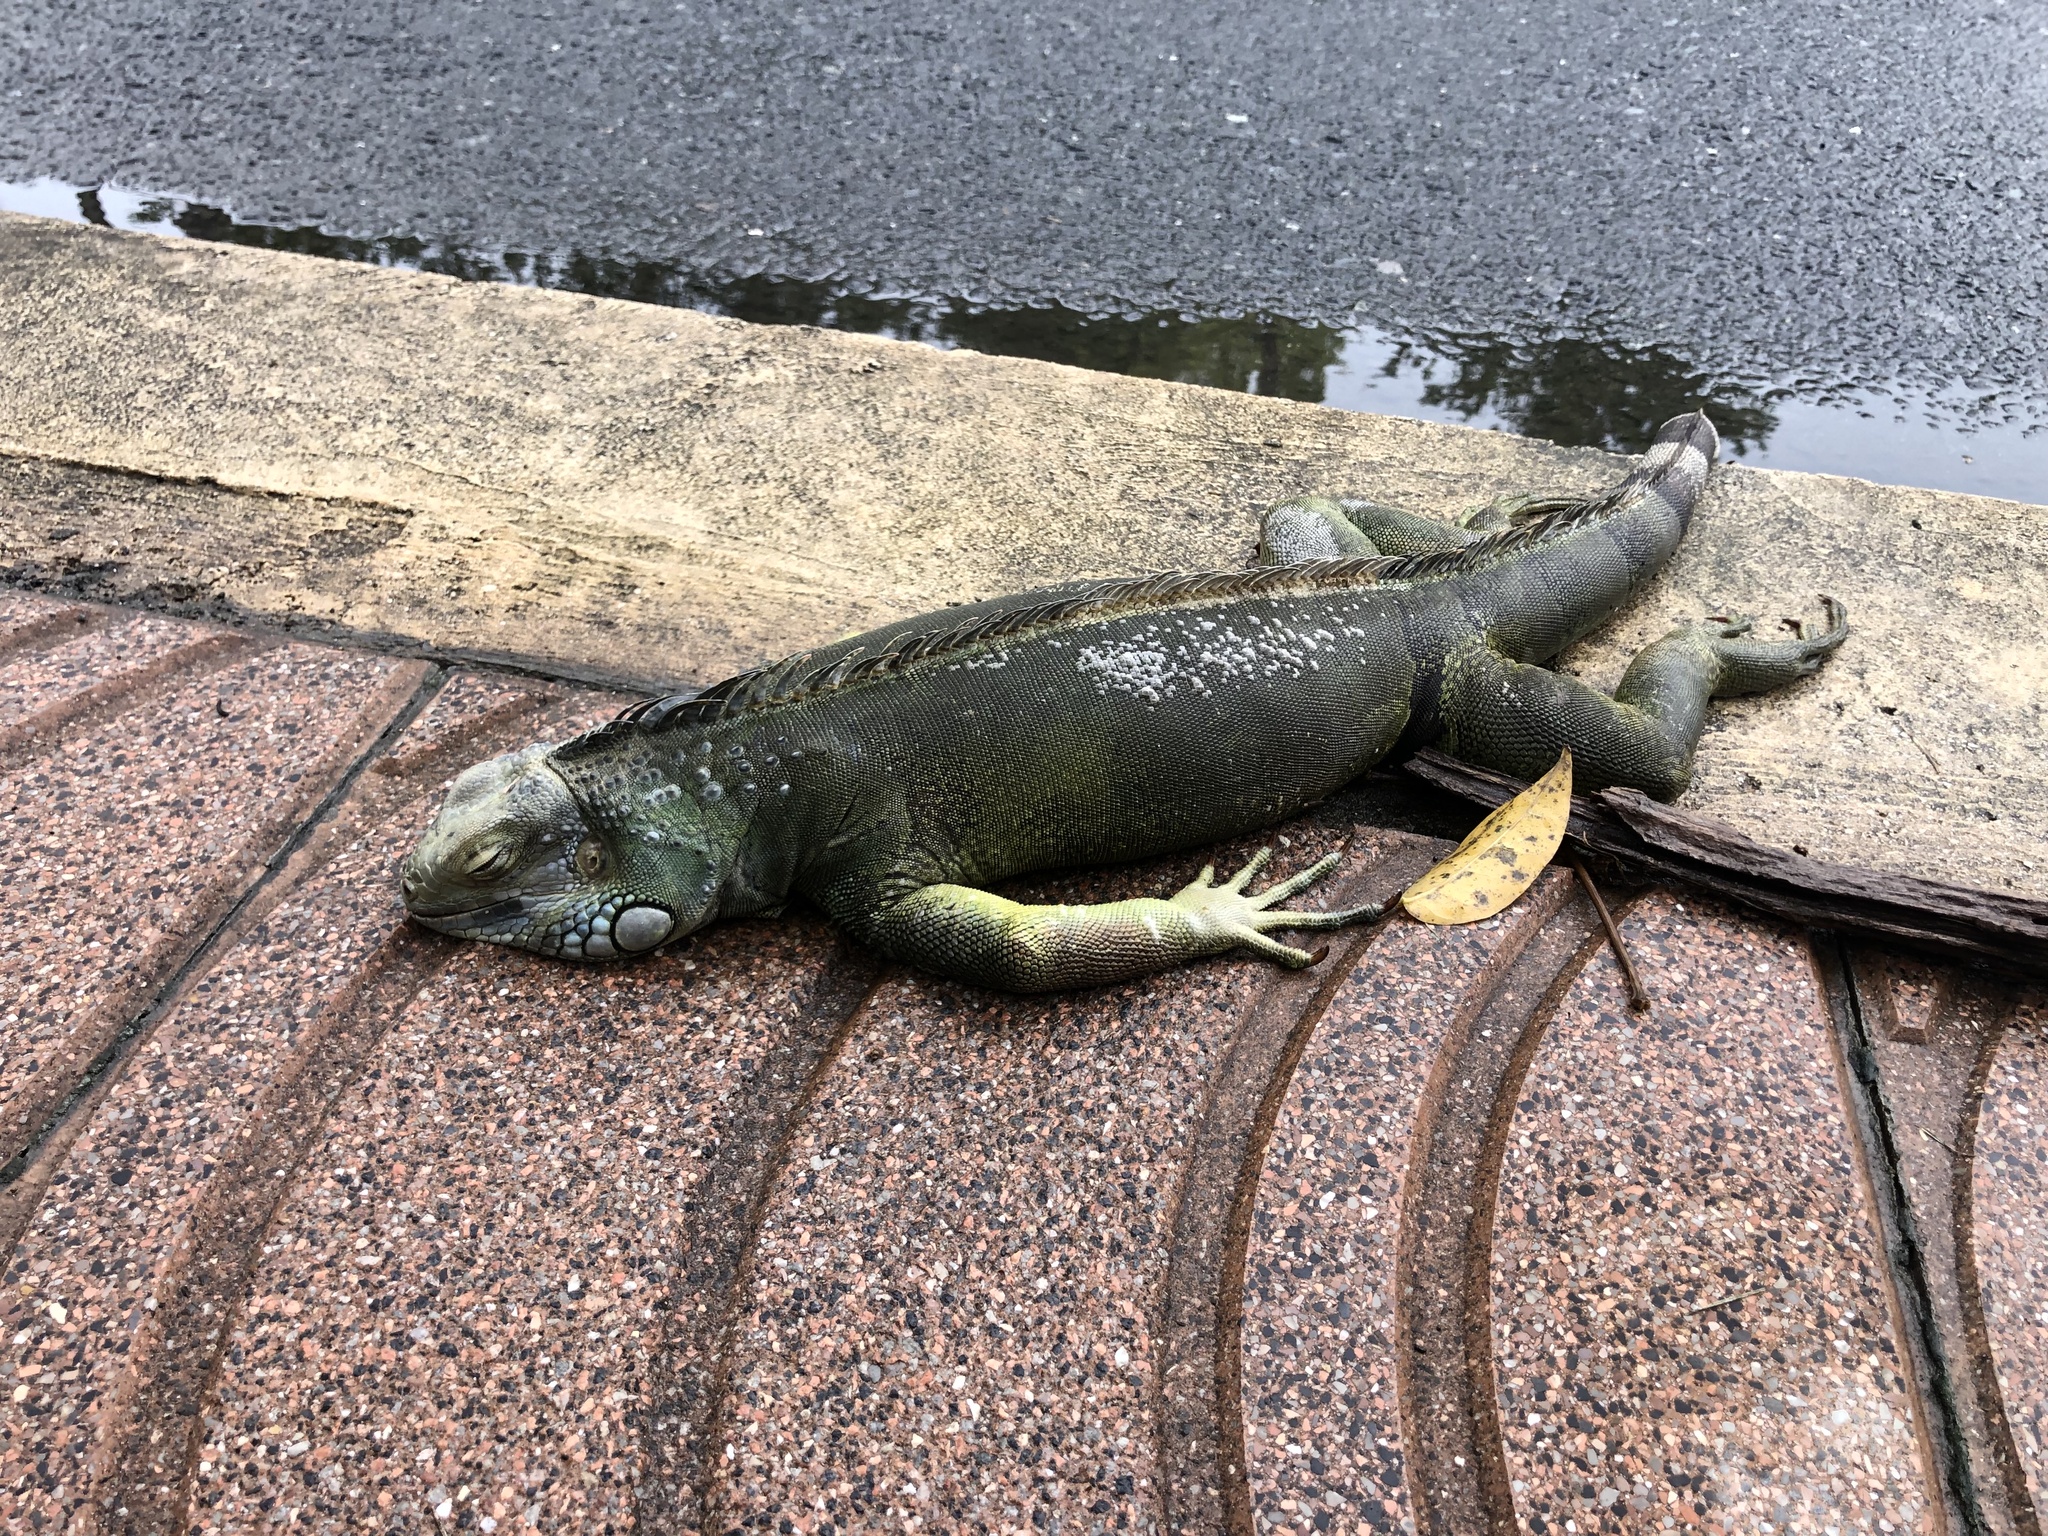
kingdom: Animalia
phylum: Chordata
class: Squamata
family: Iguanidae
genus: Iguana
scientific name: Iguana iguana
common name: Green iguana
